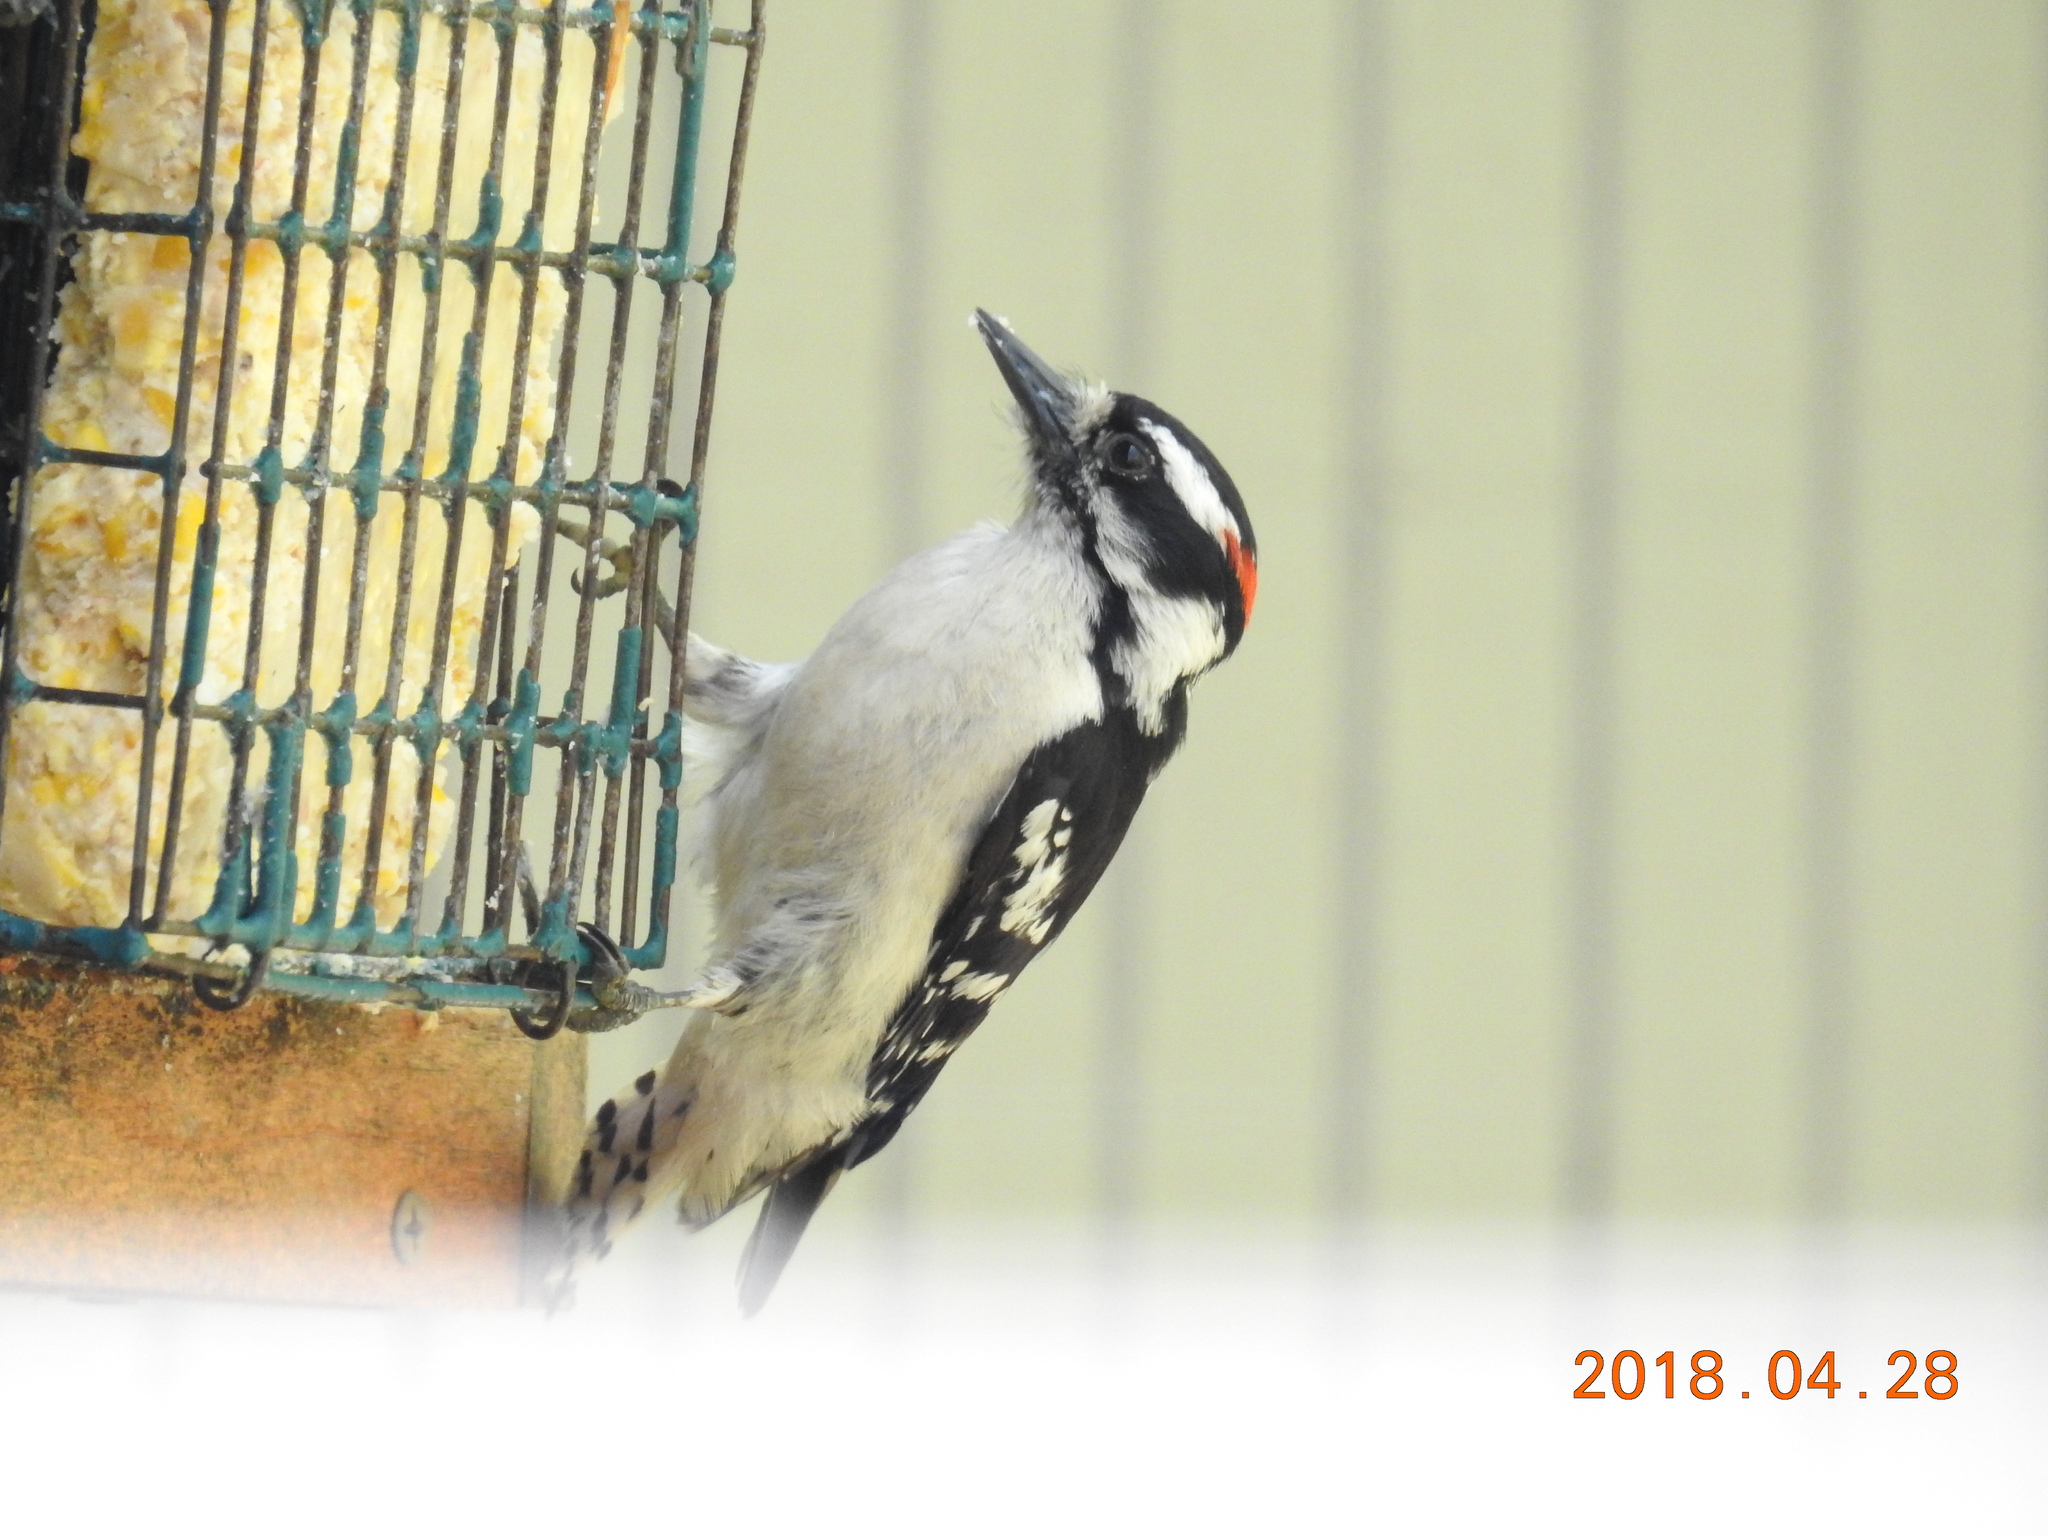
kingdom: Animalia
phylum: Chordata
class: Aves
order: Piciformes
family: Picidae
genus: Dryobates
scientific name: Dryobates pubescens
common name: Downy woodpecker
